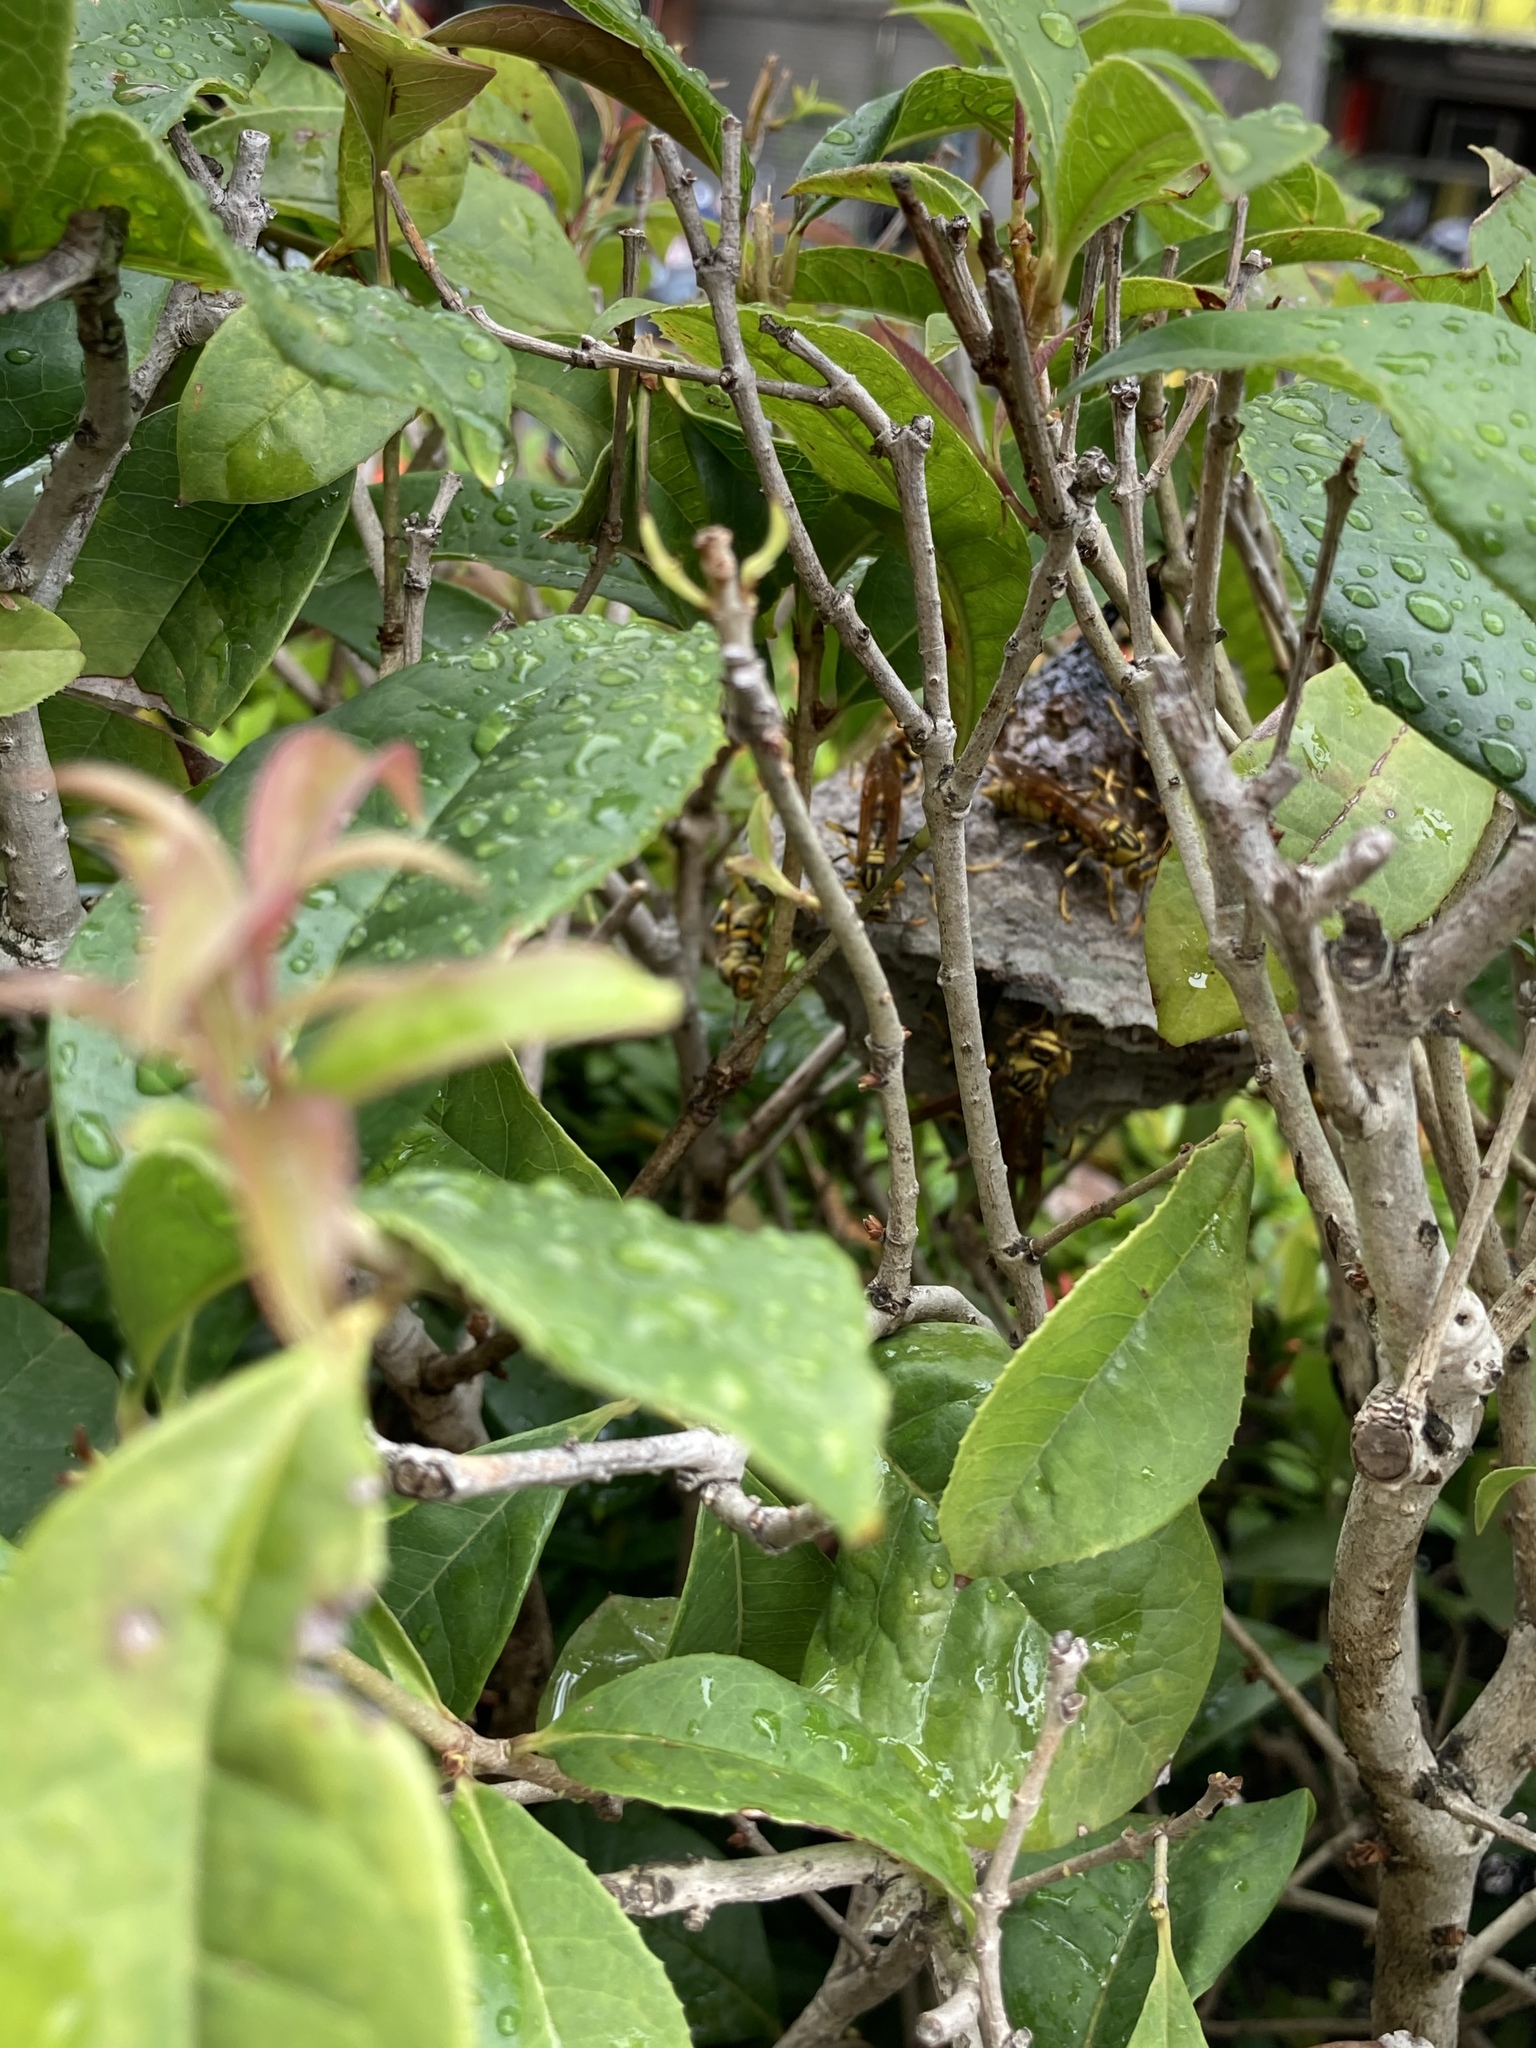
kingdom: Animalia
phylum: Arthropoda
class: Insecta
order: Hymenoptera
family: Eumenidae
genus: Polistes
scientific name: Polistes rothneyi
